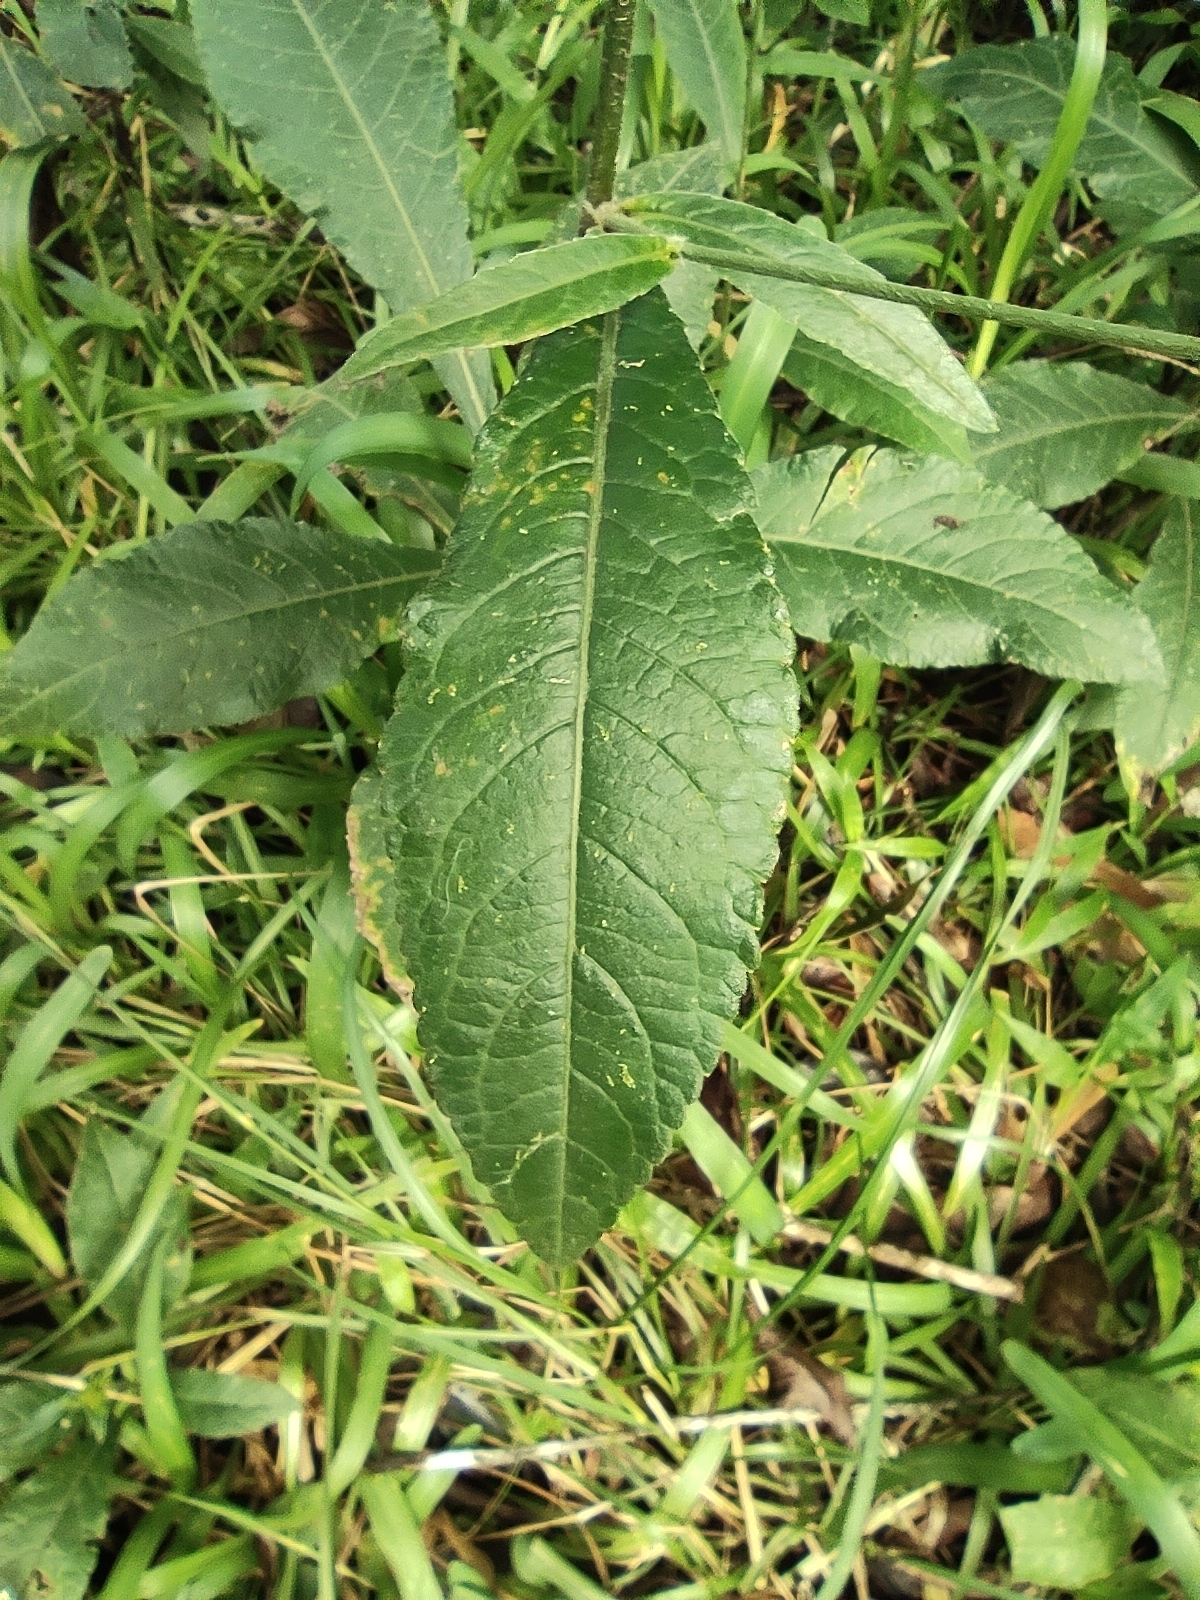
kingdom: Plantae
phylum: Tracheophyta
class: Magnoliopsida
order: Asterales
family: Asteraceae
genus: Elephantopus
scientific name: Elephantopus mollis
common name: Soft elephantsfoot
